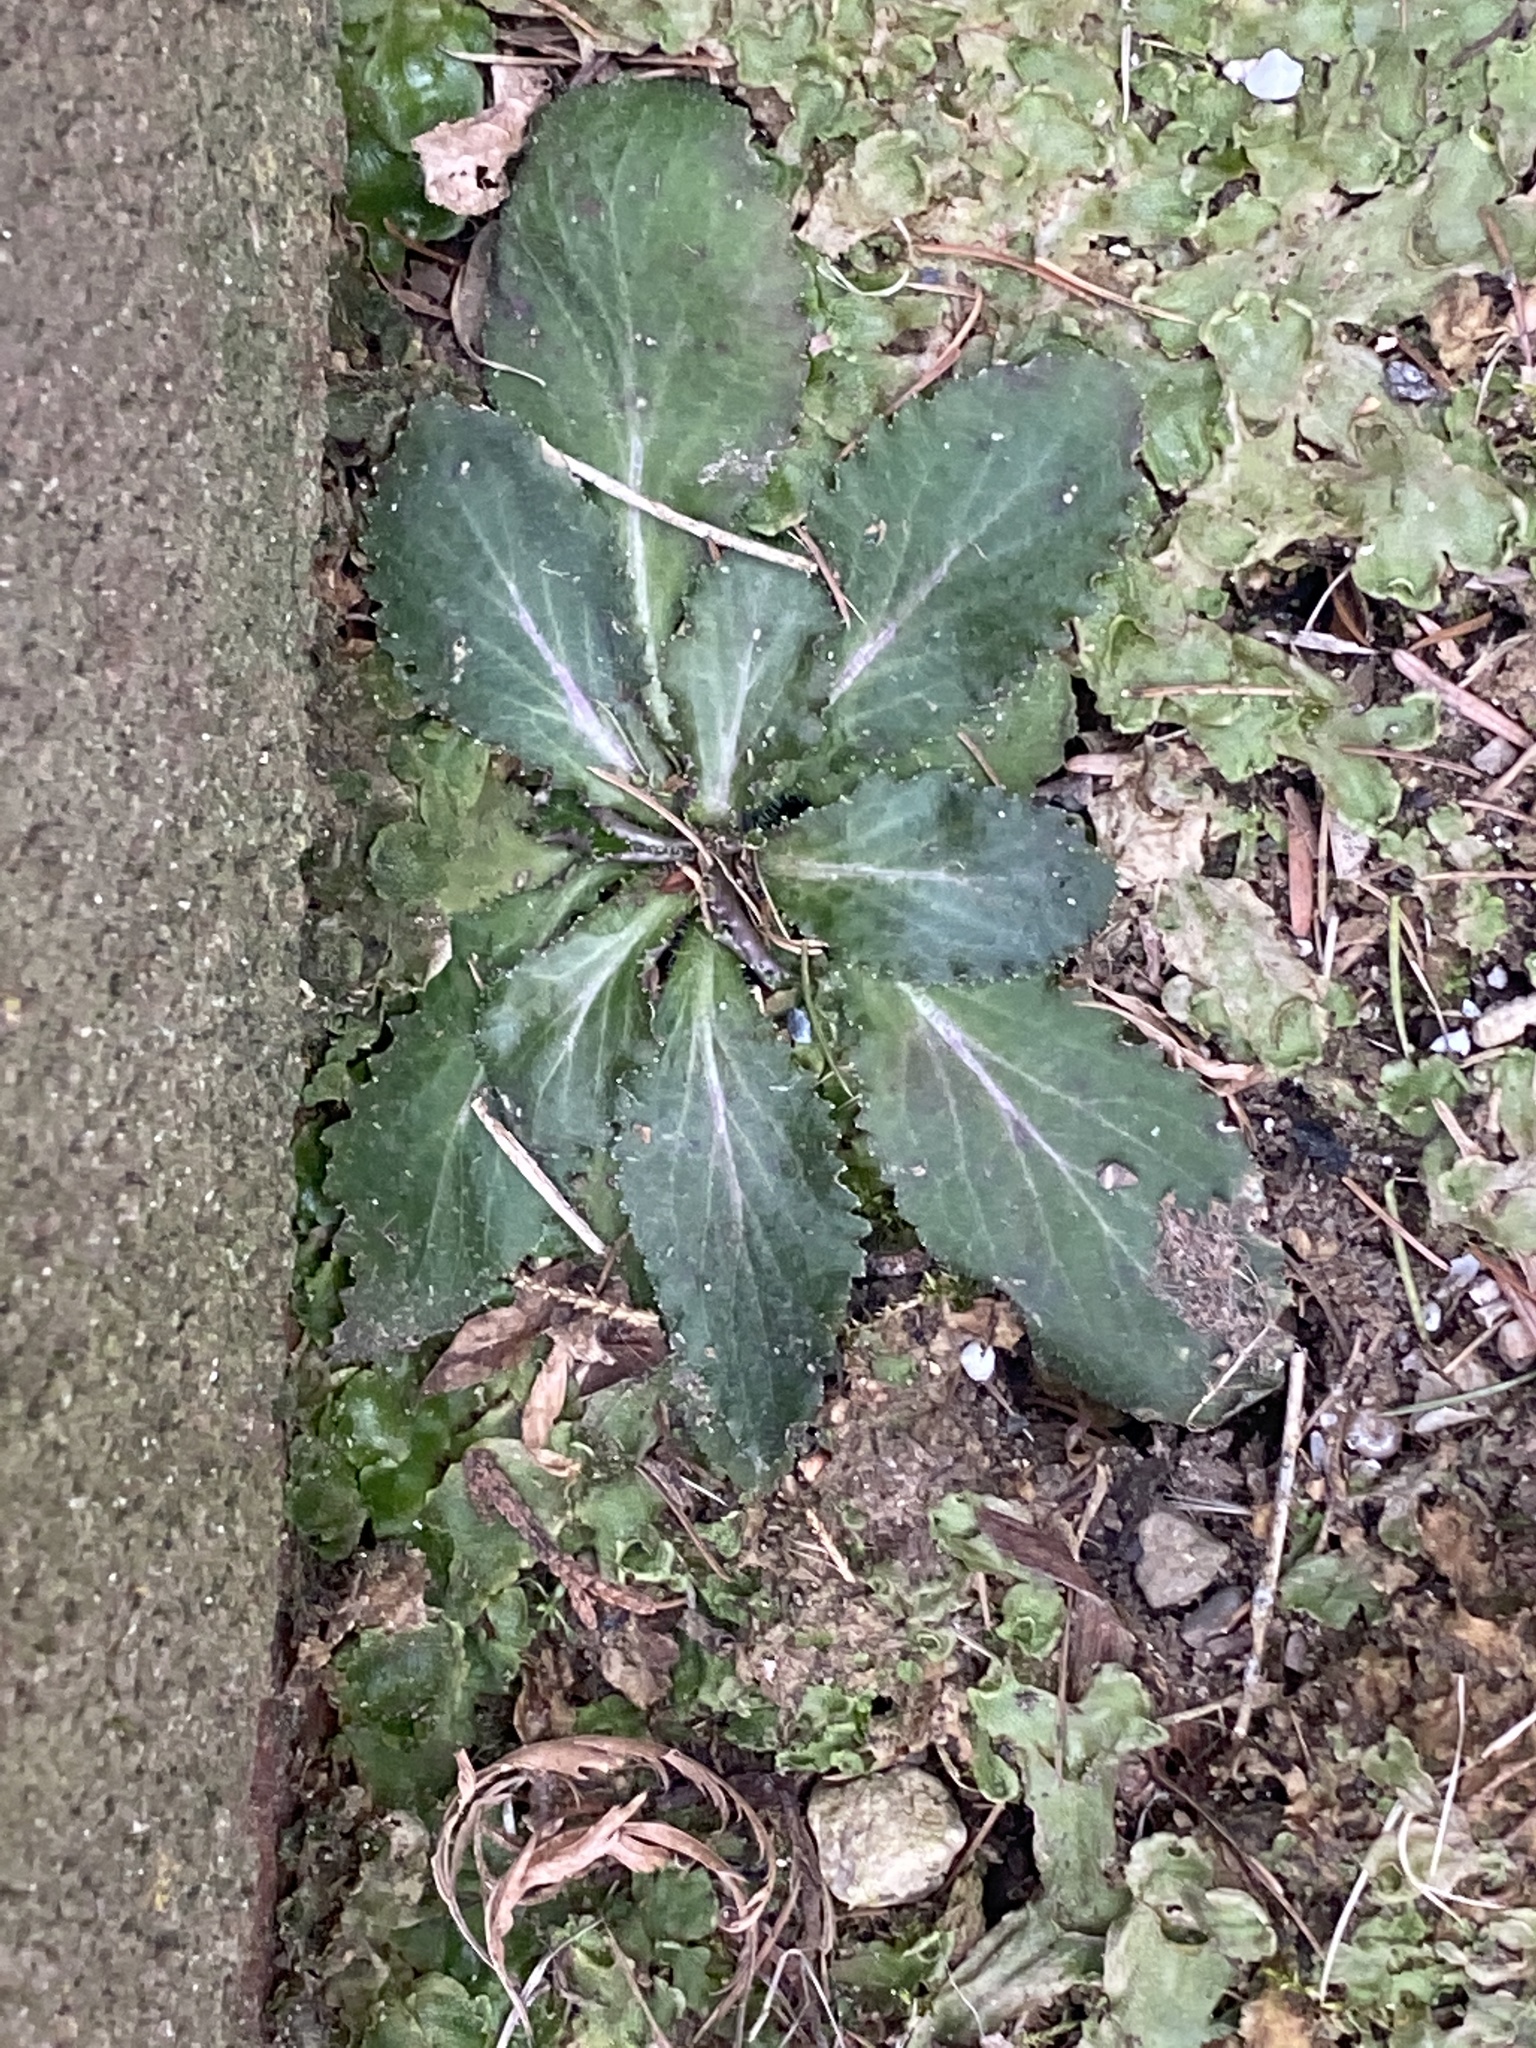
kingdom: Plantae
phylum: Tracheophyta
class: Magnoliopsida
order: Asterales
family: Campanulaceae
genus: Lobelia
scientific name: Lobelia inflata
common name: Indian tobacco
